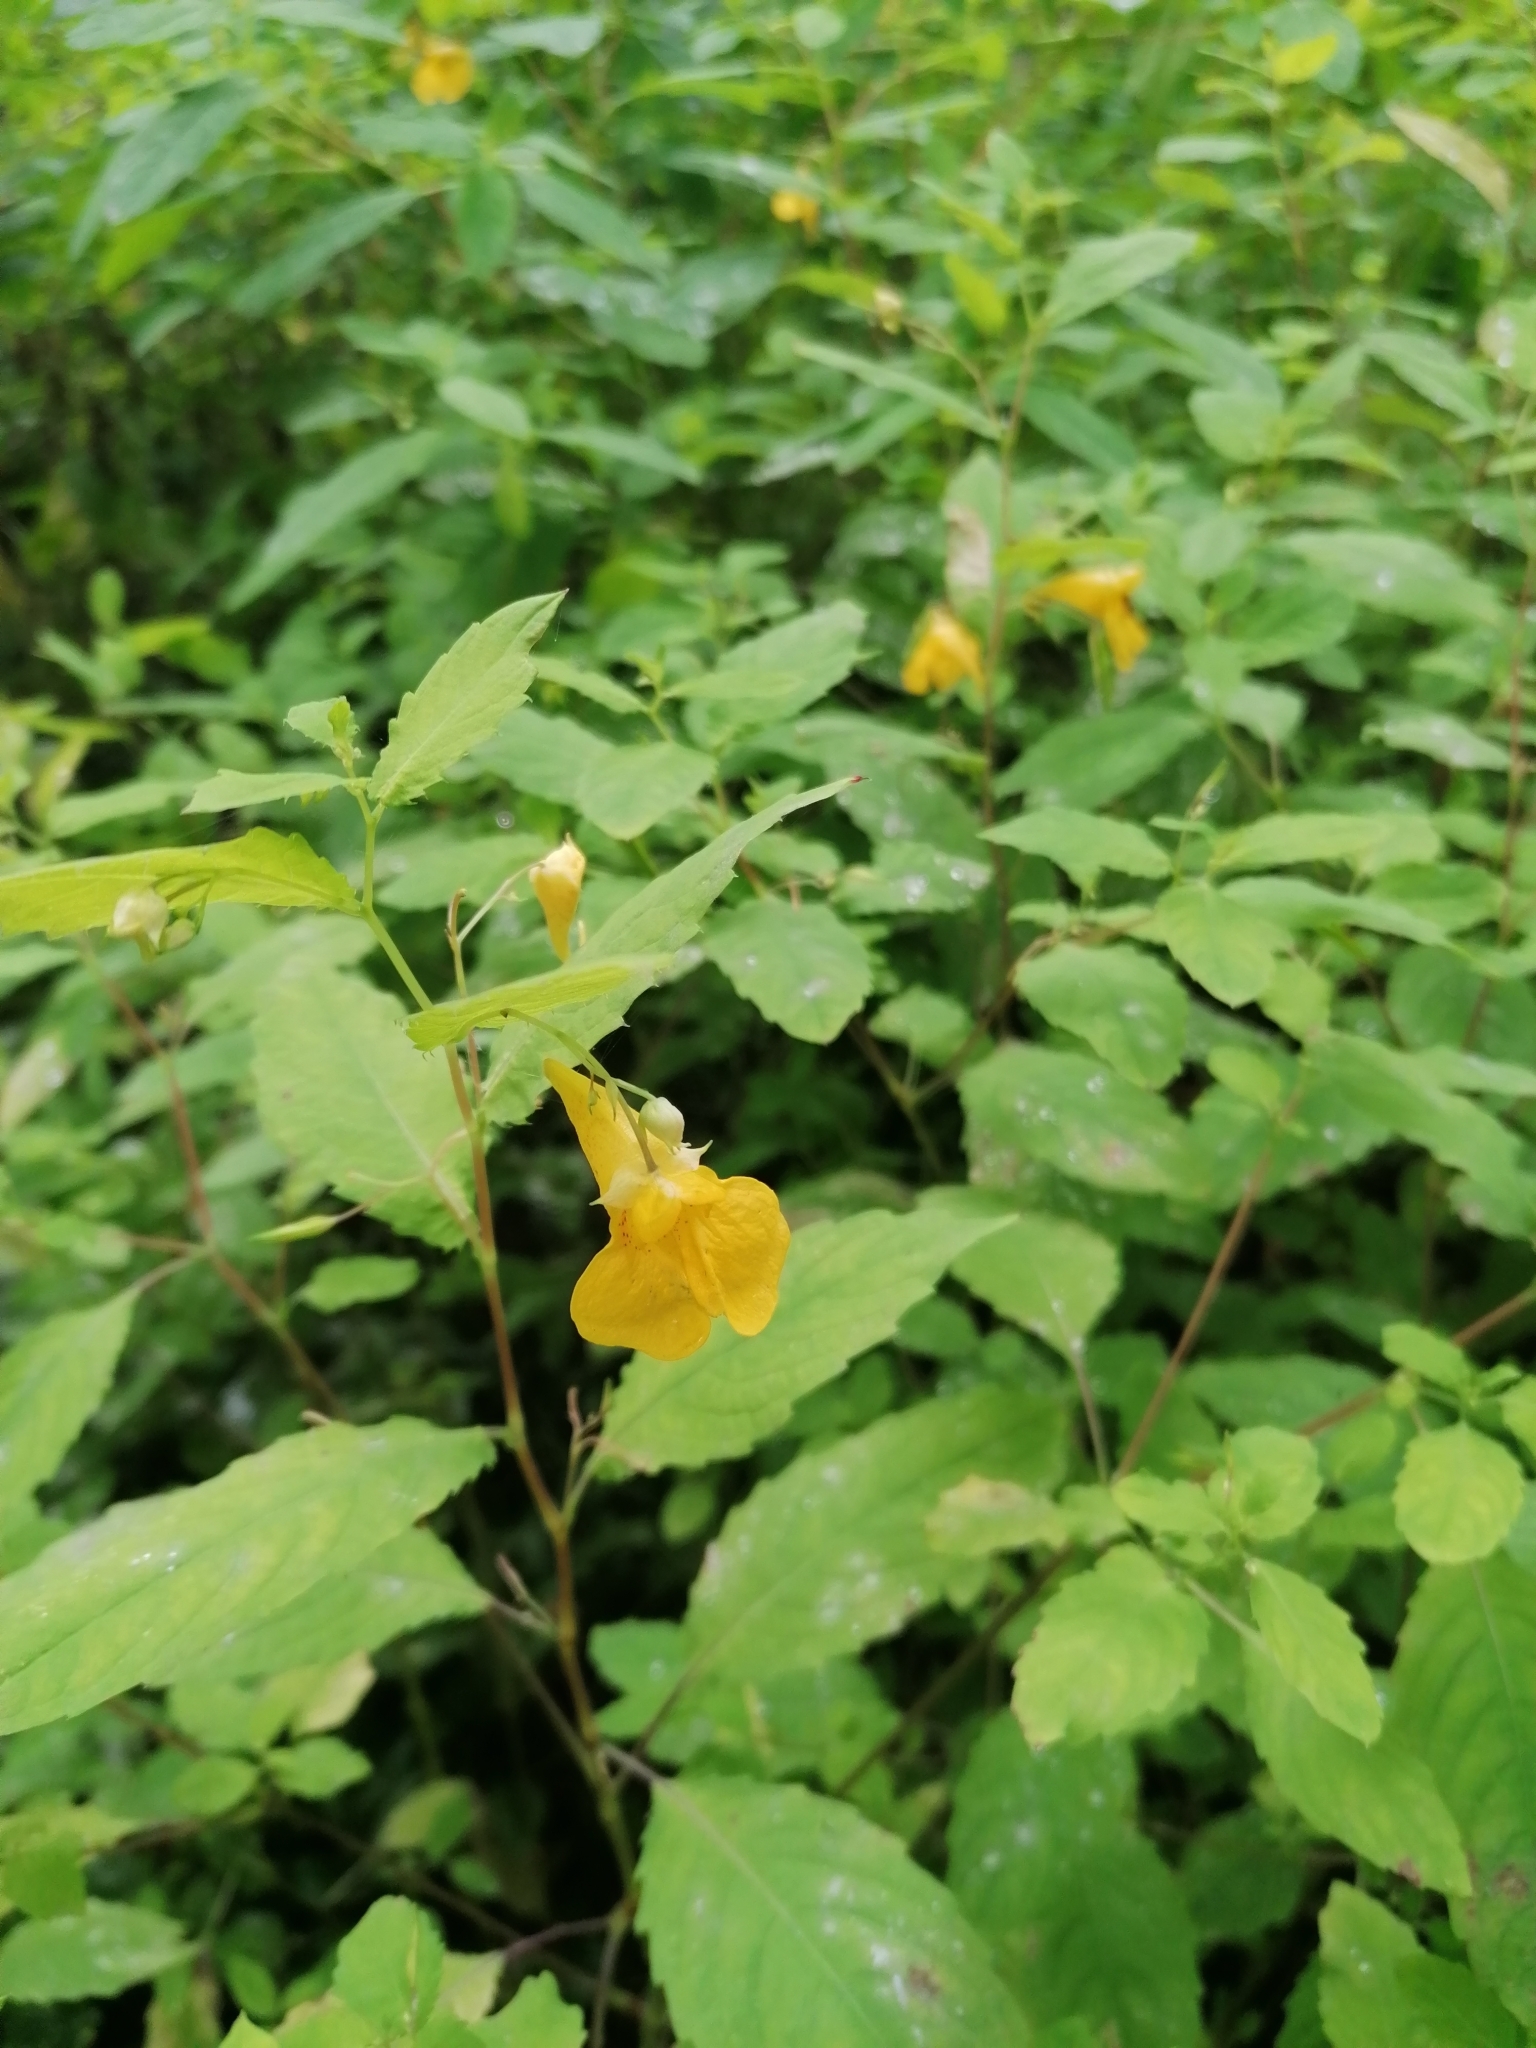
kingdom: Plantae
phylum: Tracheophyta
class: Magnoliopsida
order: Ericales
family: Balsaminaceae
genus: Impatiens
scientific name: Impatiens noli-tangere
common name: Touch-me-not balsam
